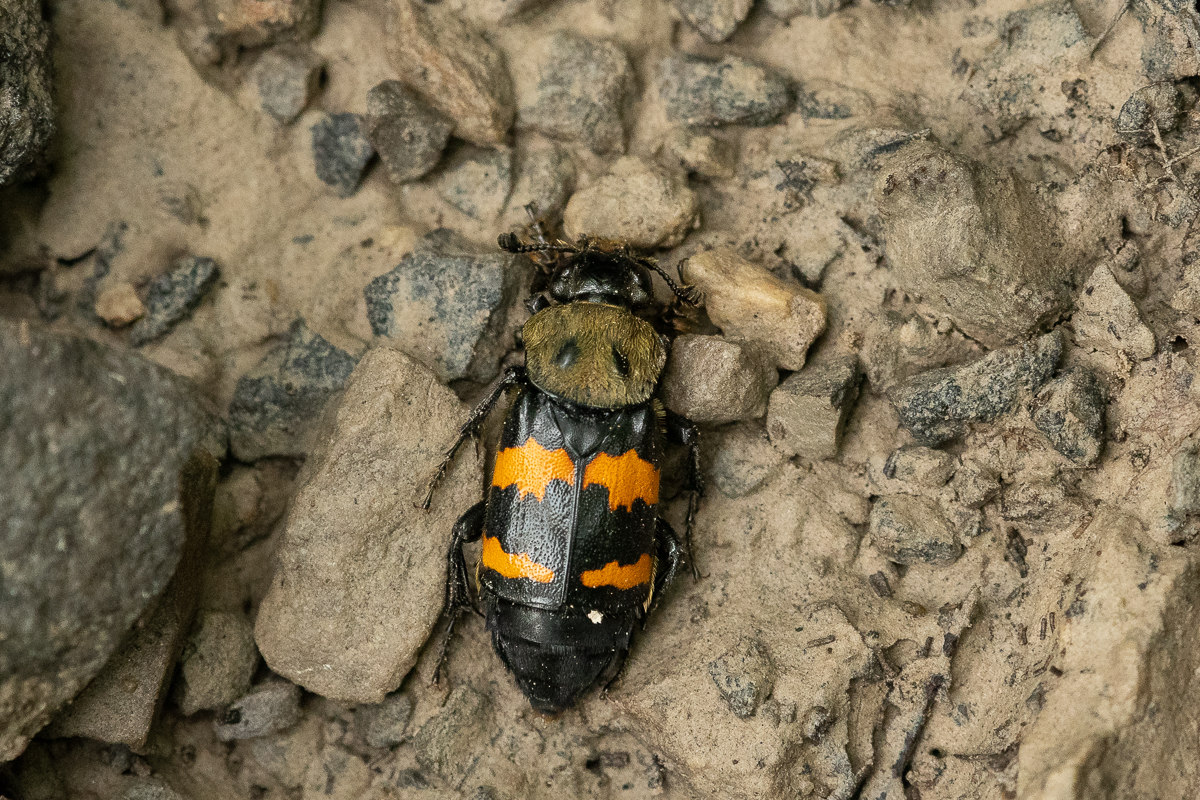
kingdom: Animalia
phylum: Arthropoda
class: Insecta
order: Coleoptera
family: Staphylinidae
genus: Nicrophorus
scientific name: Nicrophorus tomentosus
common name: Tomentose burying beetle
